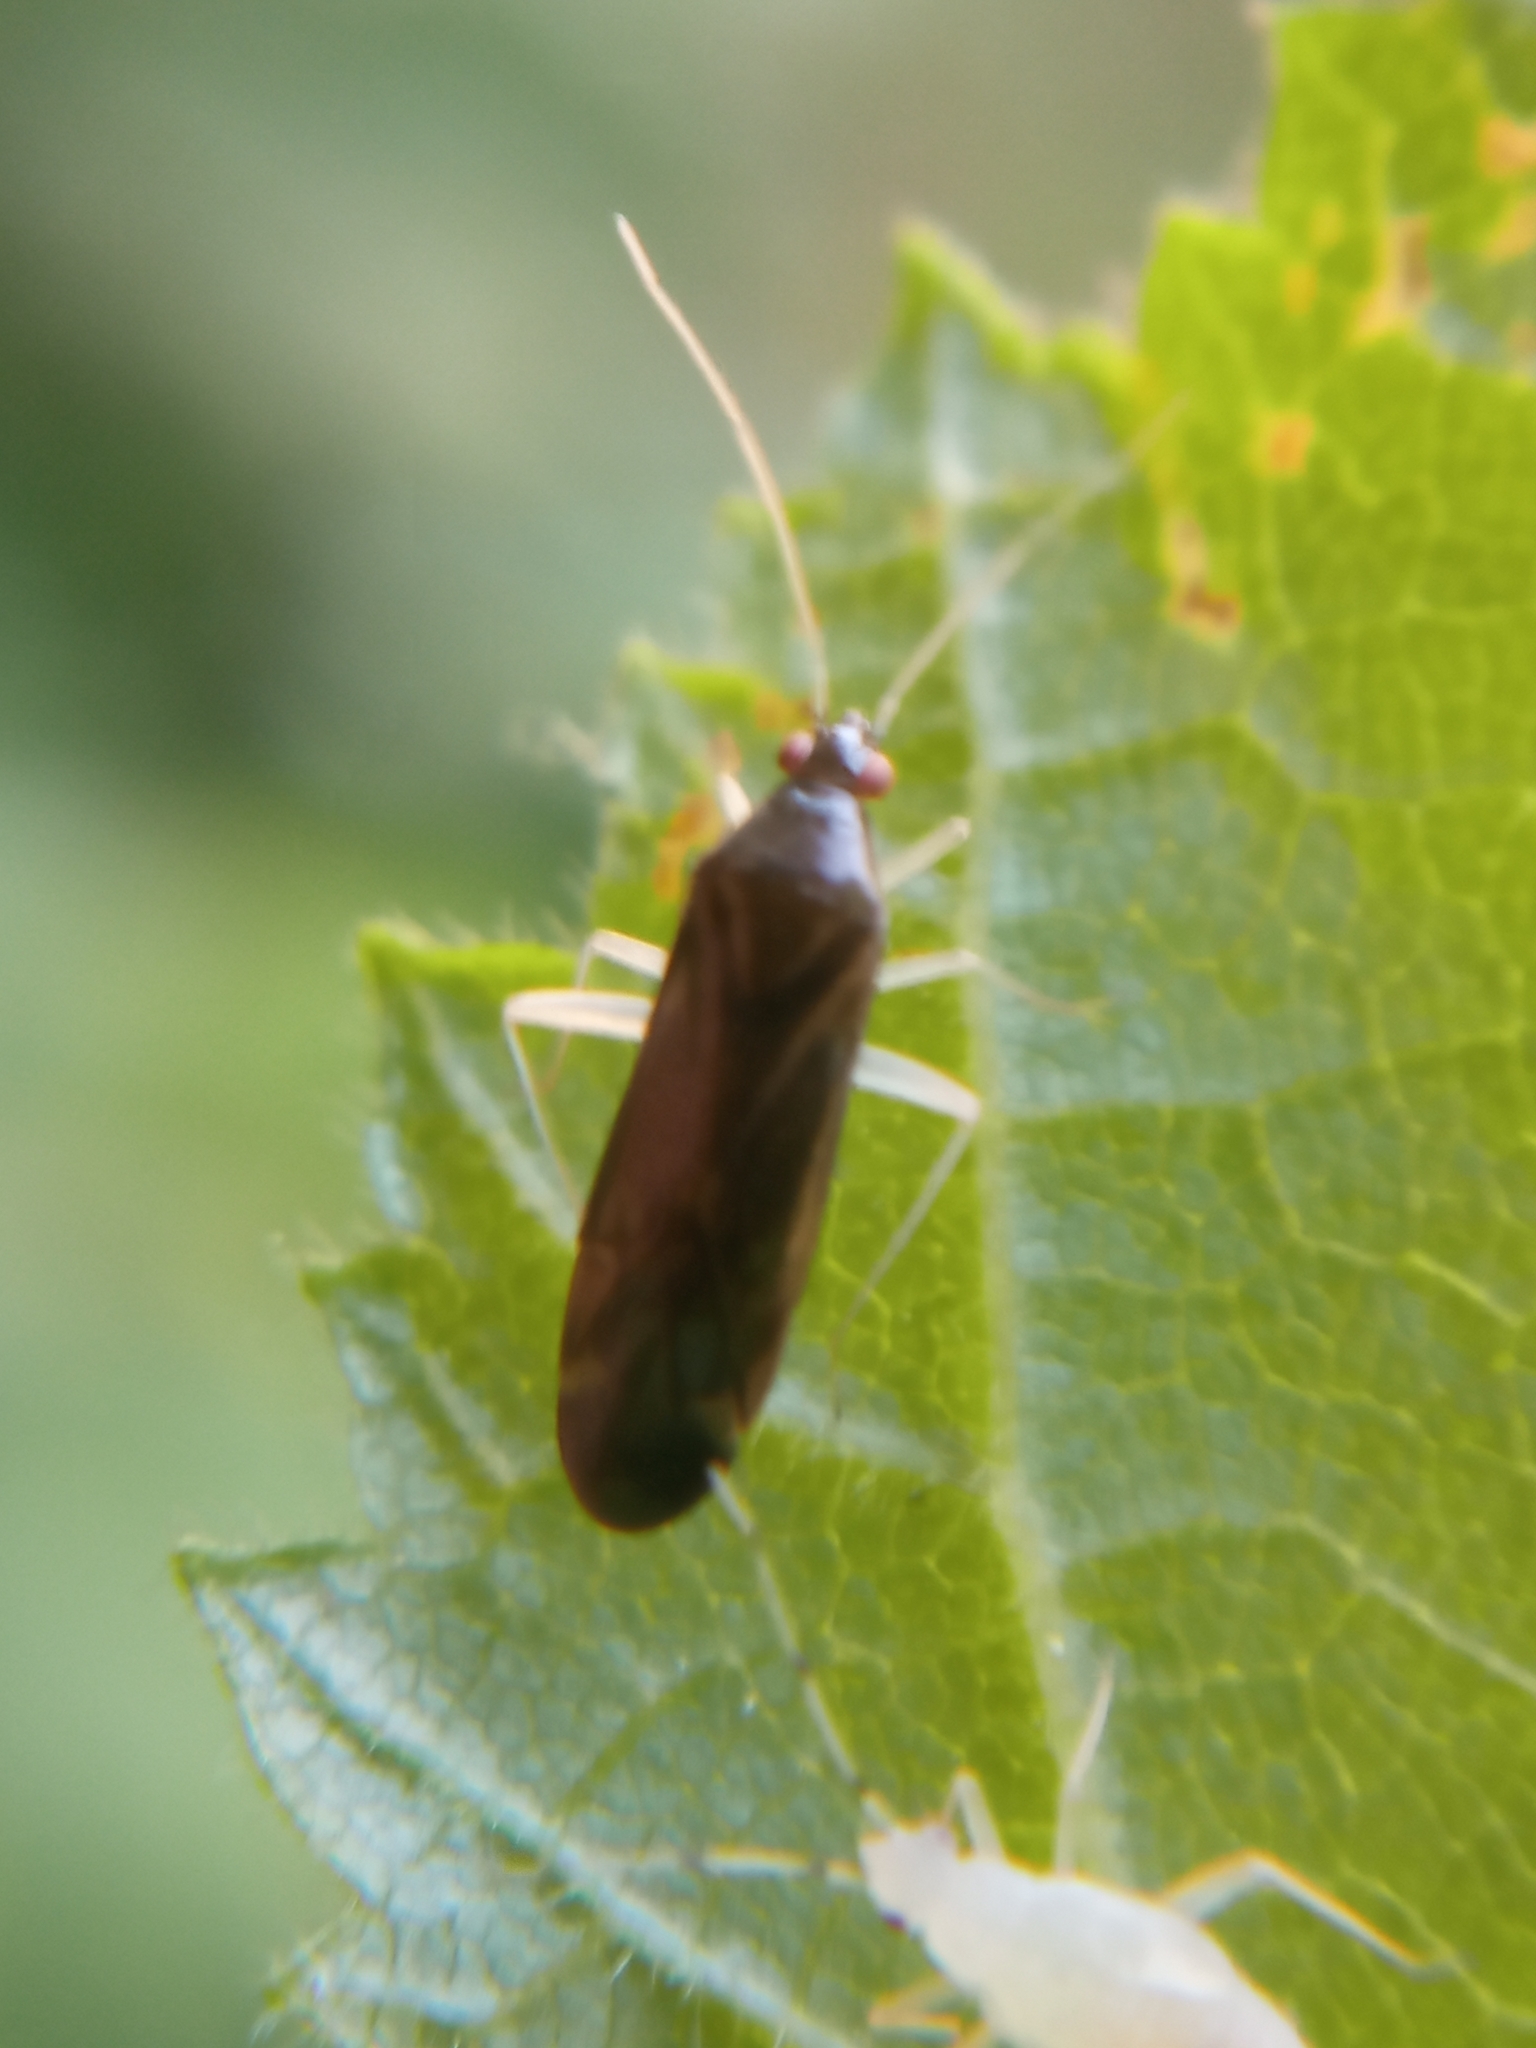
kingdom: Animalia
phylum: Arthropoda
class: Insecta
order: Hemiptera
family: Miridae
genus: Phylus
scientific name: Phylus coryli
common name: Plant bug
